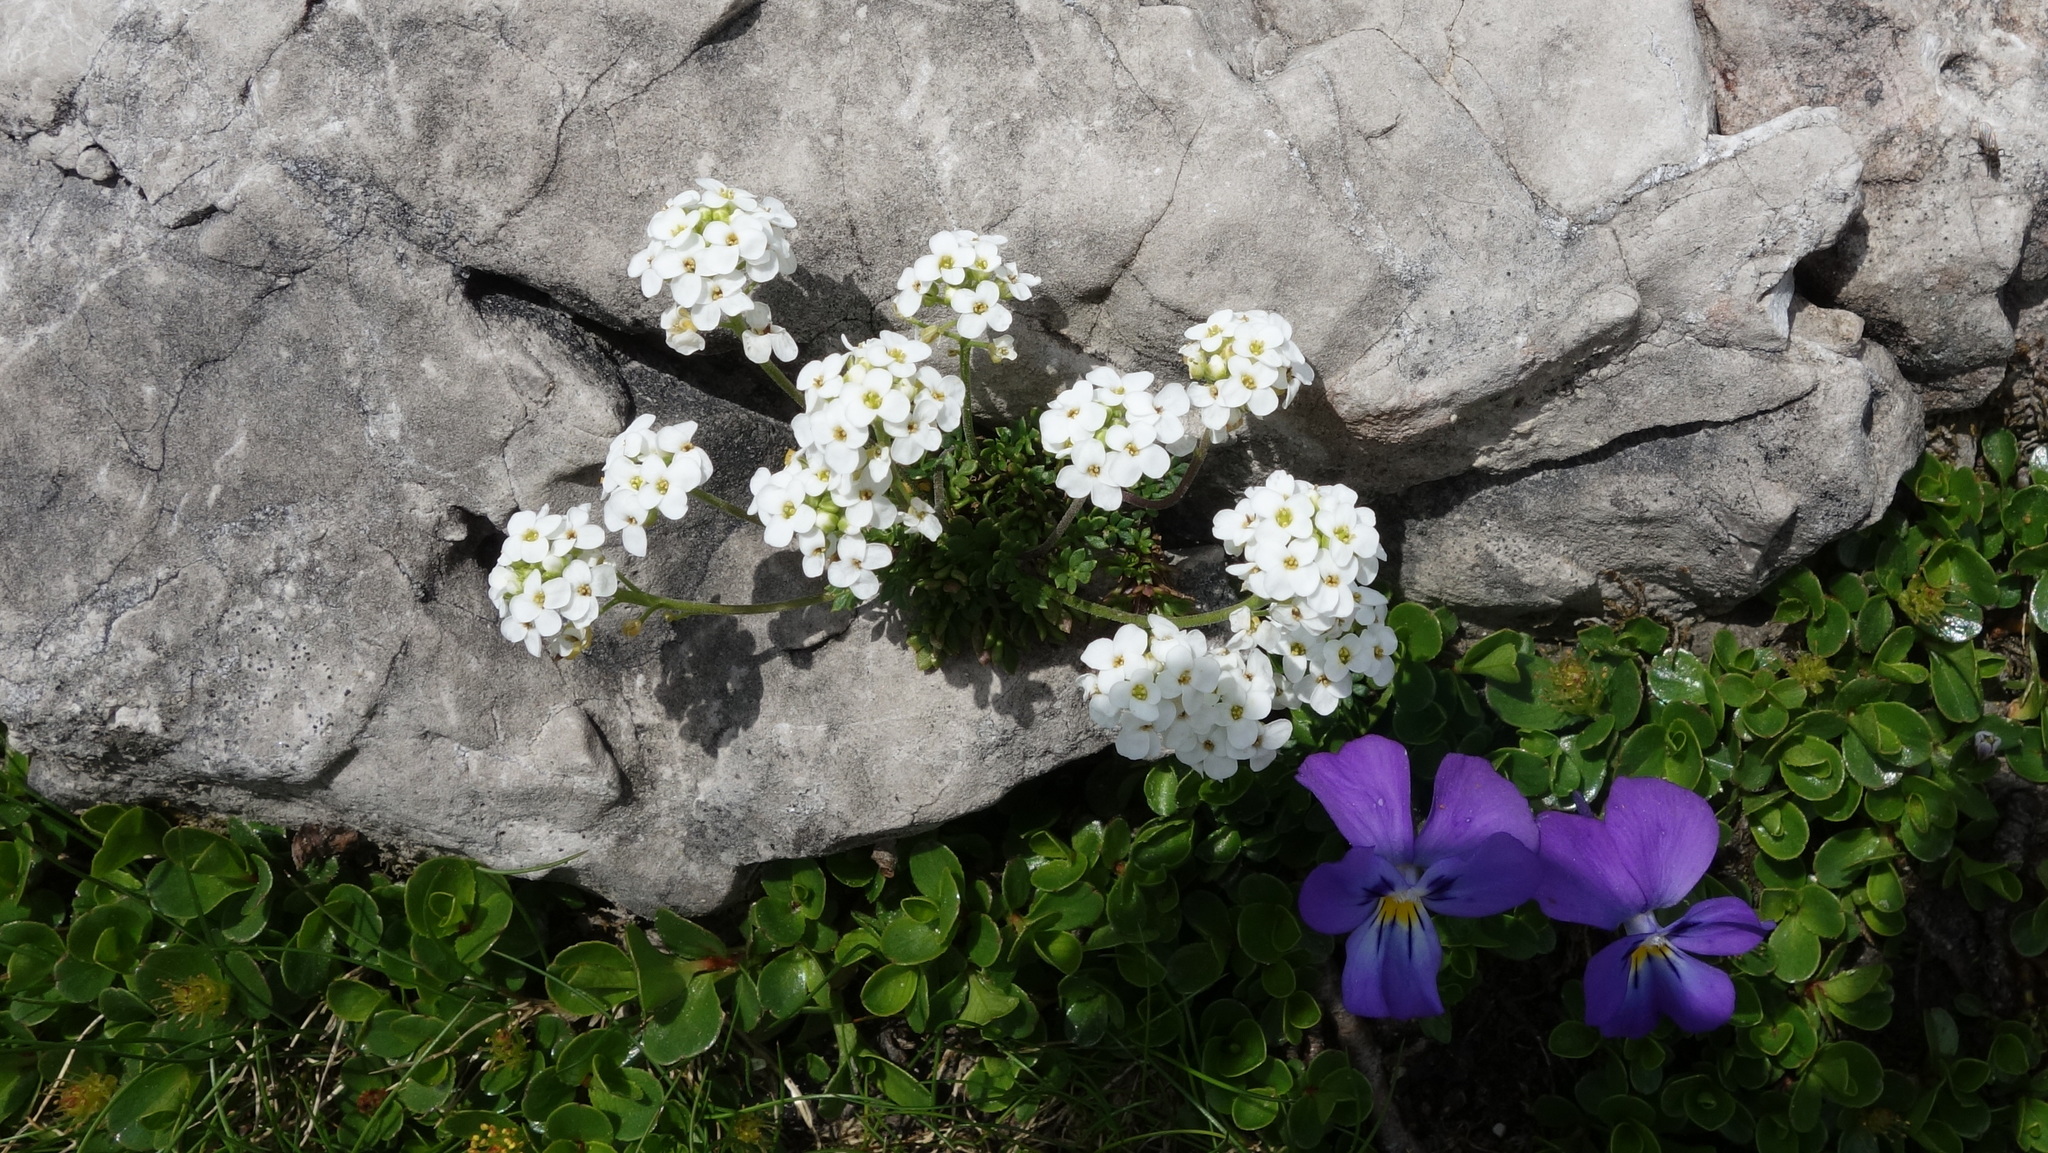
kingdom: Plantae
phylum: Tracheophyta
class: Magnoliopsida
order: Brassicales
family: Brassicaceae
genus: Hornungia
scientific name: Hornungia alpina
